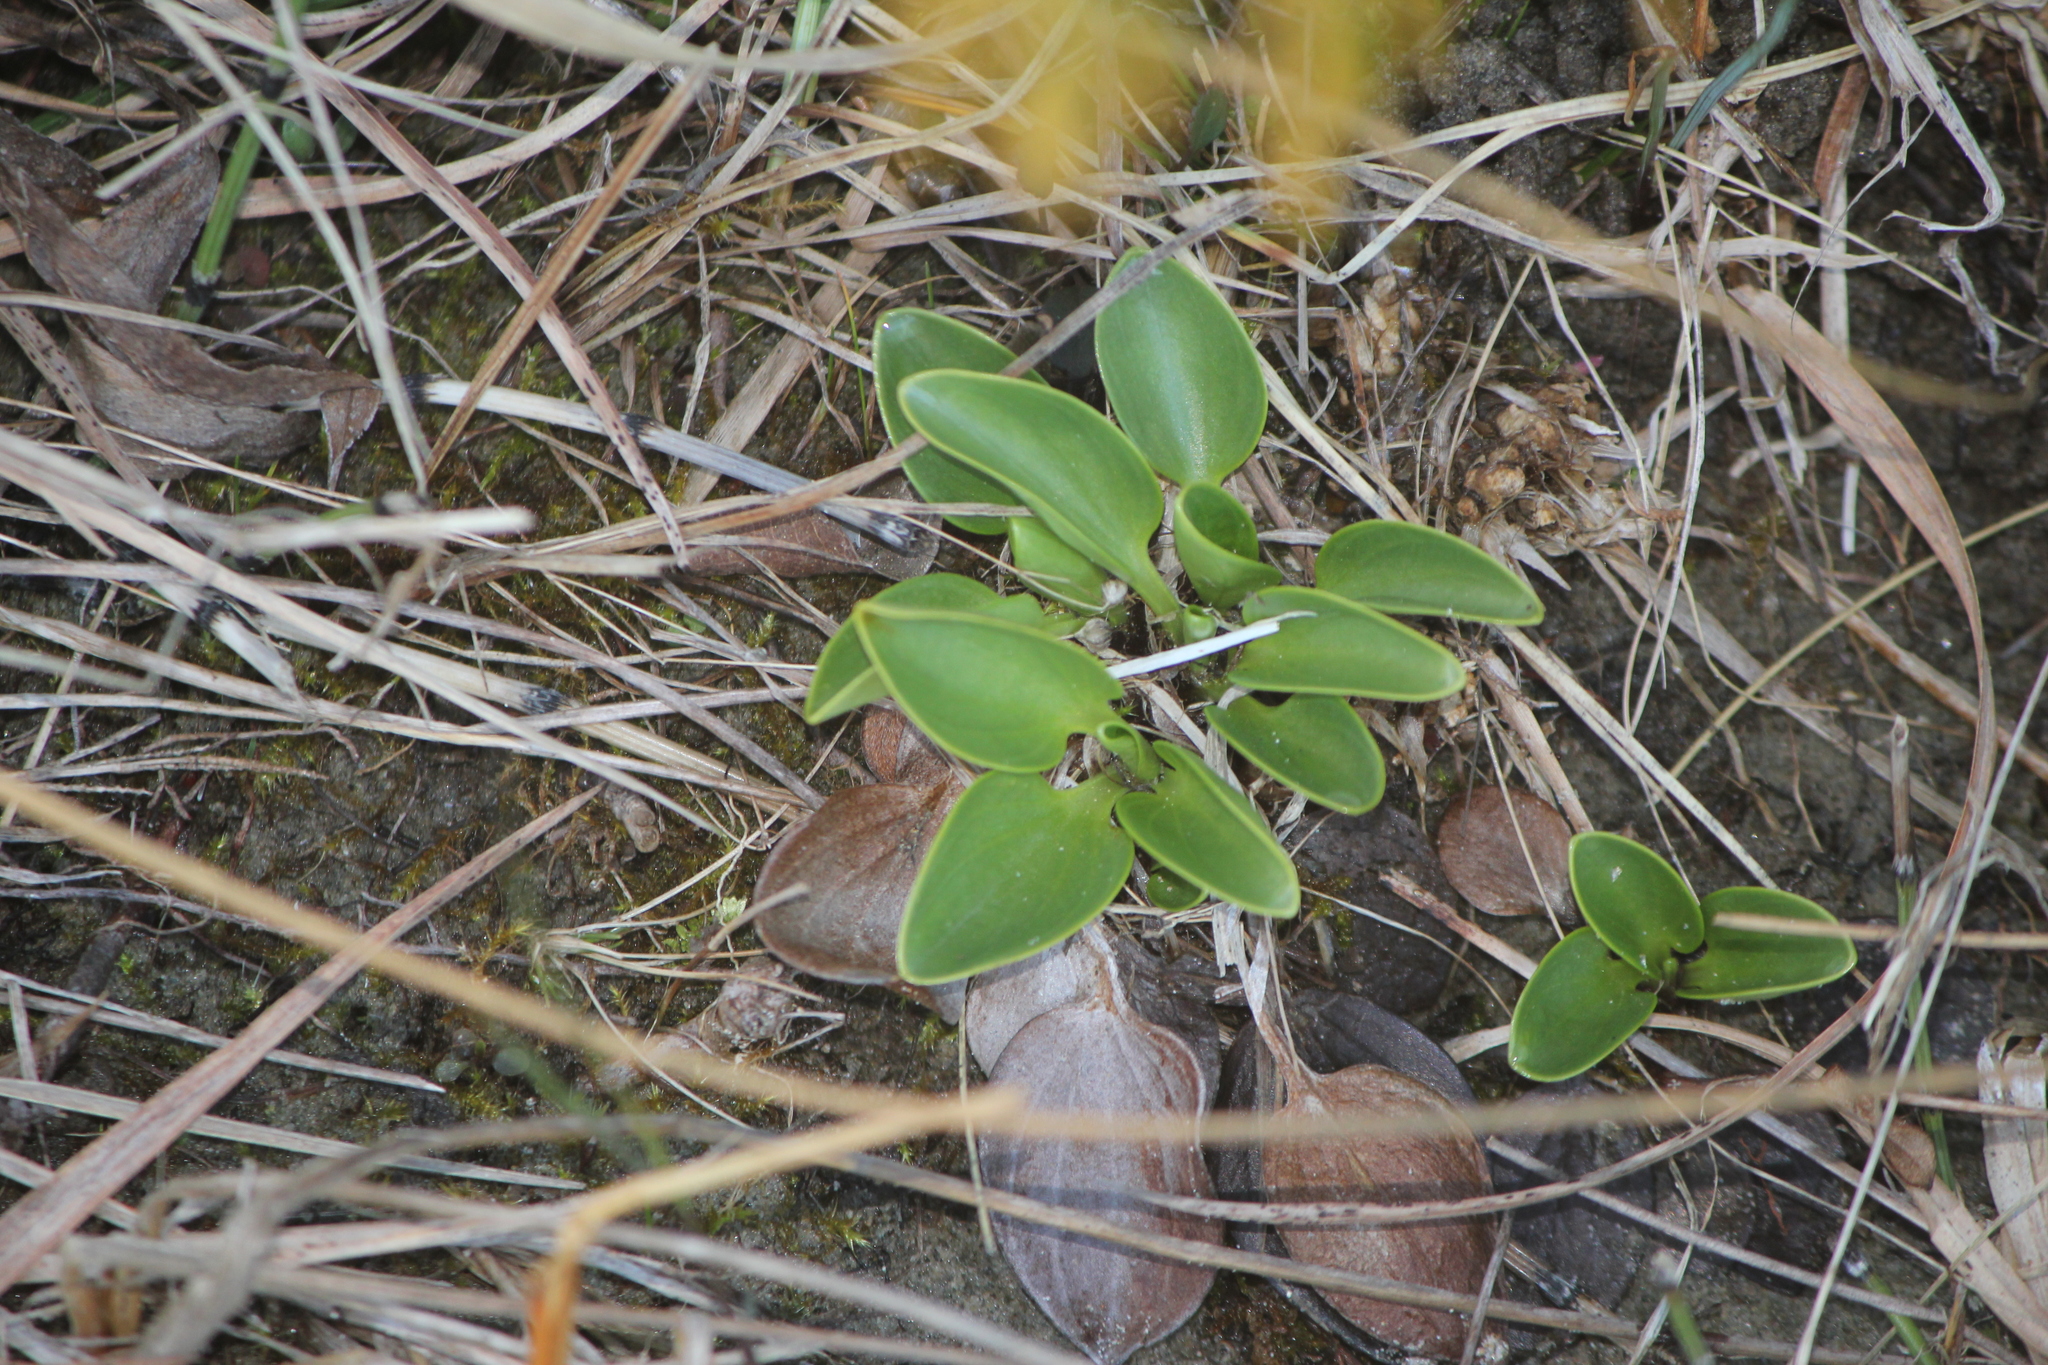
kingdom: Plantae
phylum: Tracheophyta
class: Magnoliopsida
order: Celastrales
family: Parnassiaceae
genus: Parnassia
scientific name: Parnassia glauca
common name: American grass-of-parnassus
